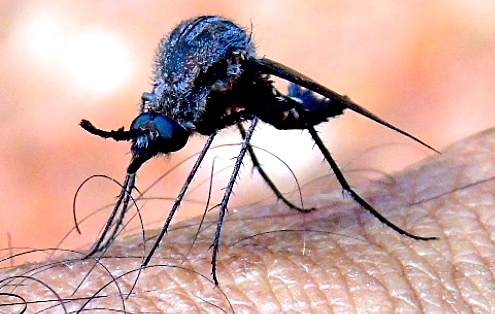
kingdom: Animalia
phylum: Arthropoda
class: Insecta
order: Diptera
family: Bombyliidae
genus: Lepidophora
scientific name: Lepidophora vetusta
